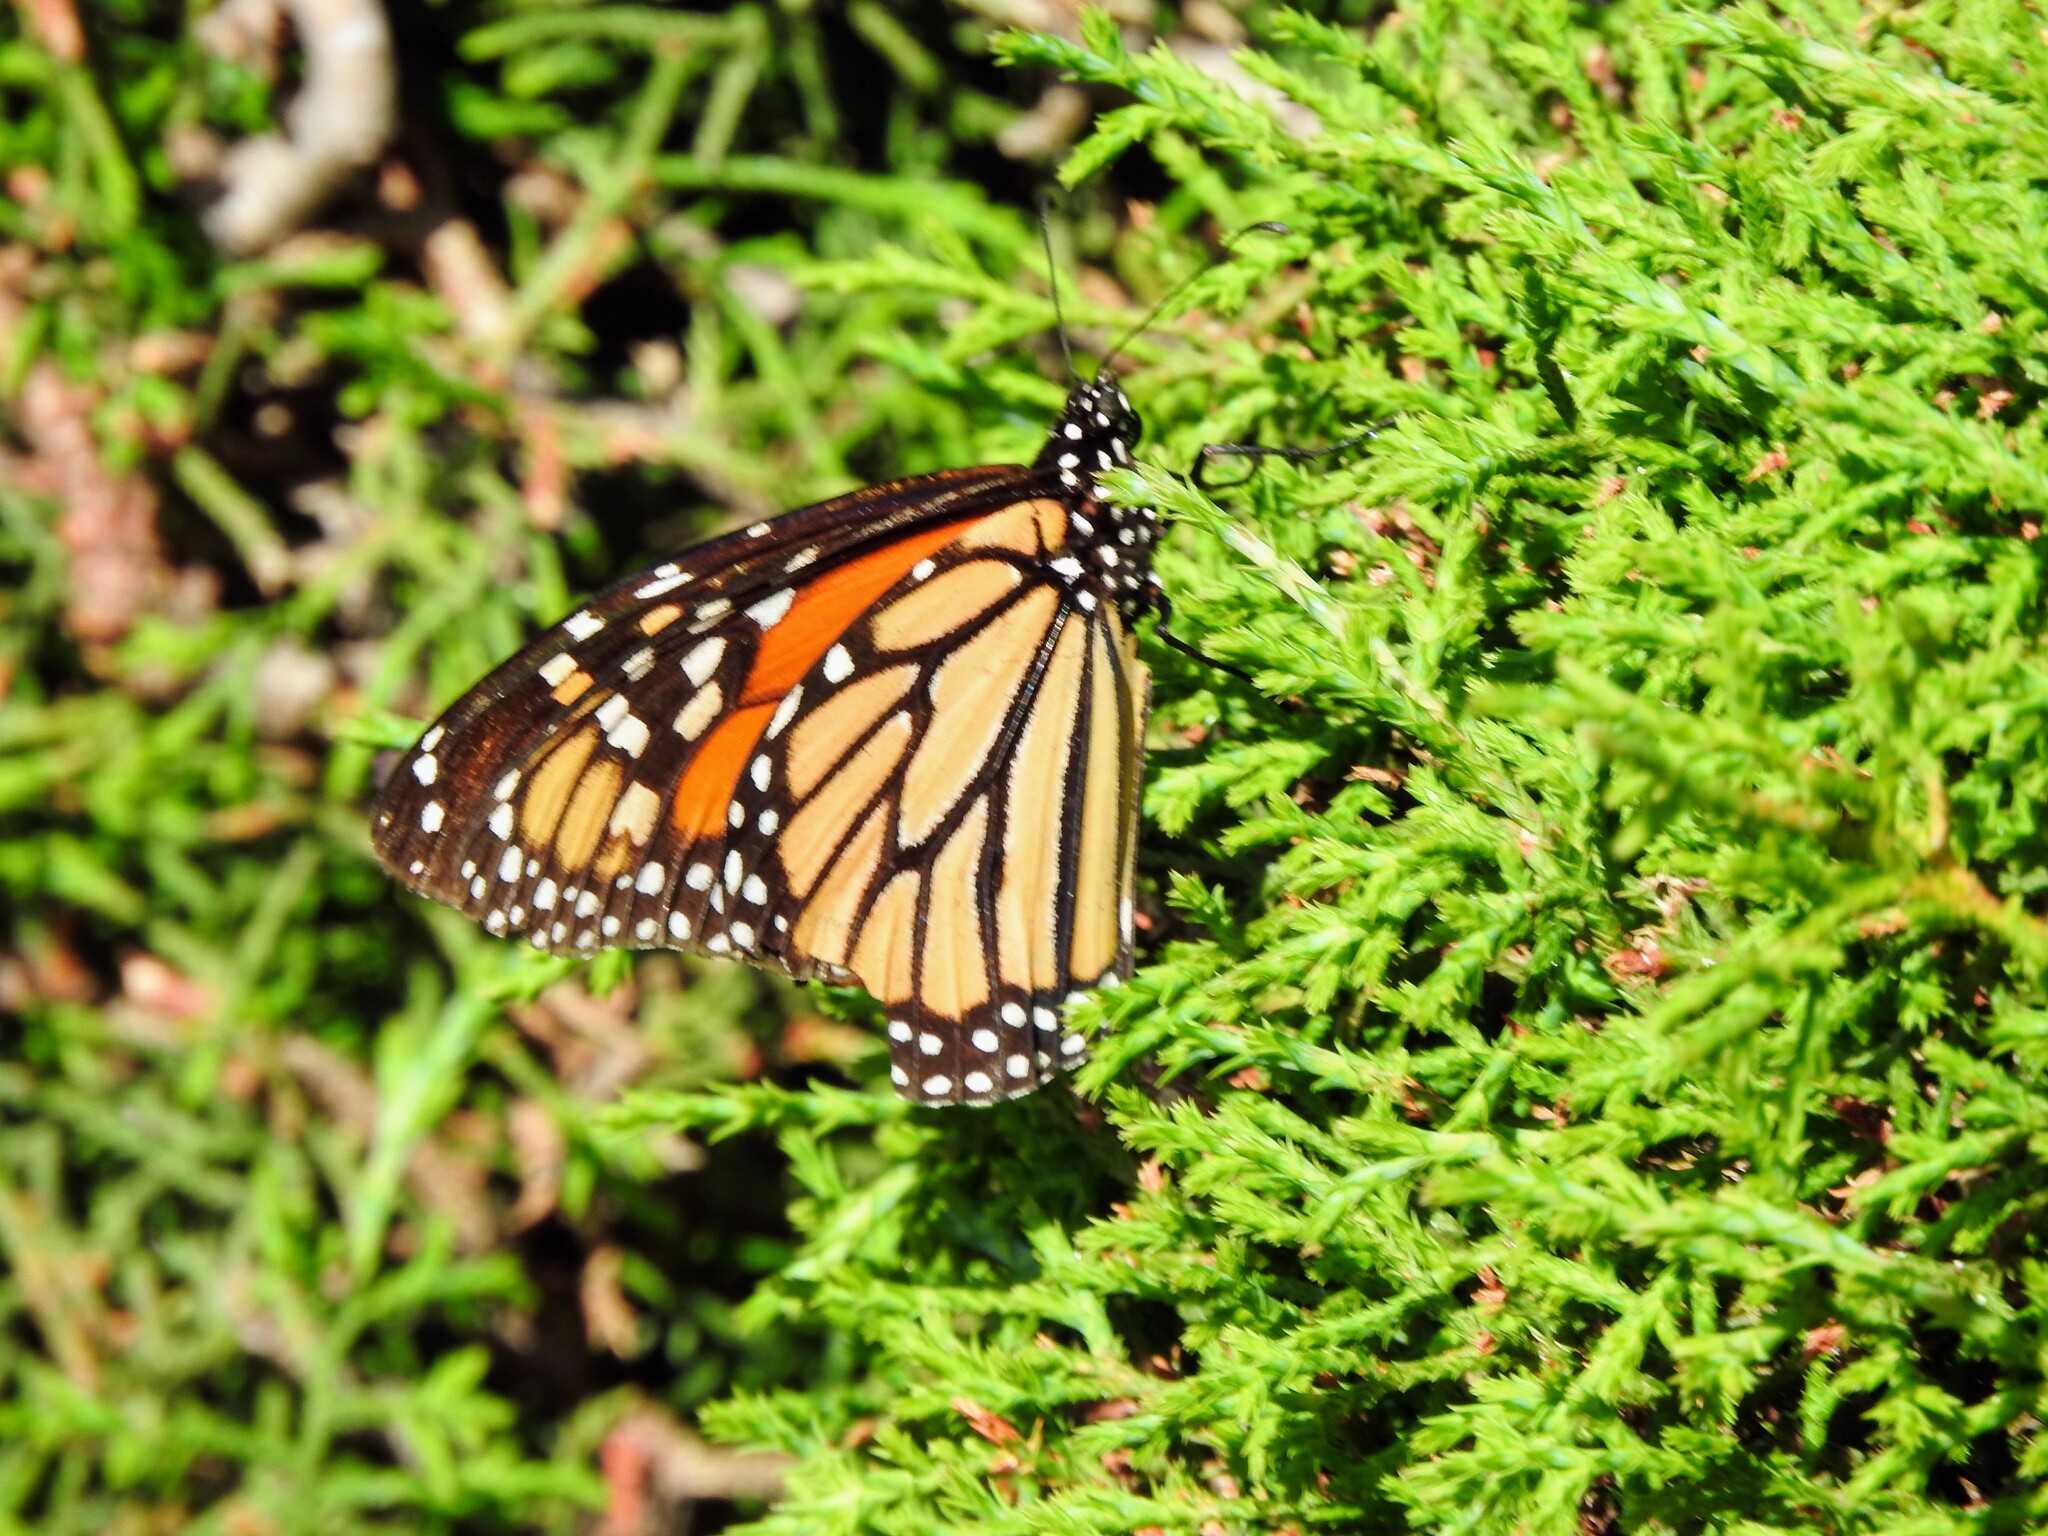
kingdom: Animalia
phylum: Arthropoda
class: Insecta
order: Lepidoptera
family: Nymphalidae
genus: Danaus
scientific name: Danaus plexippus
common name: Monarch
